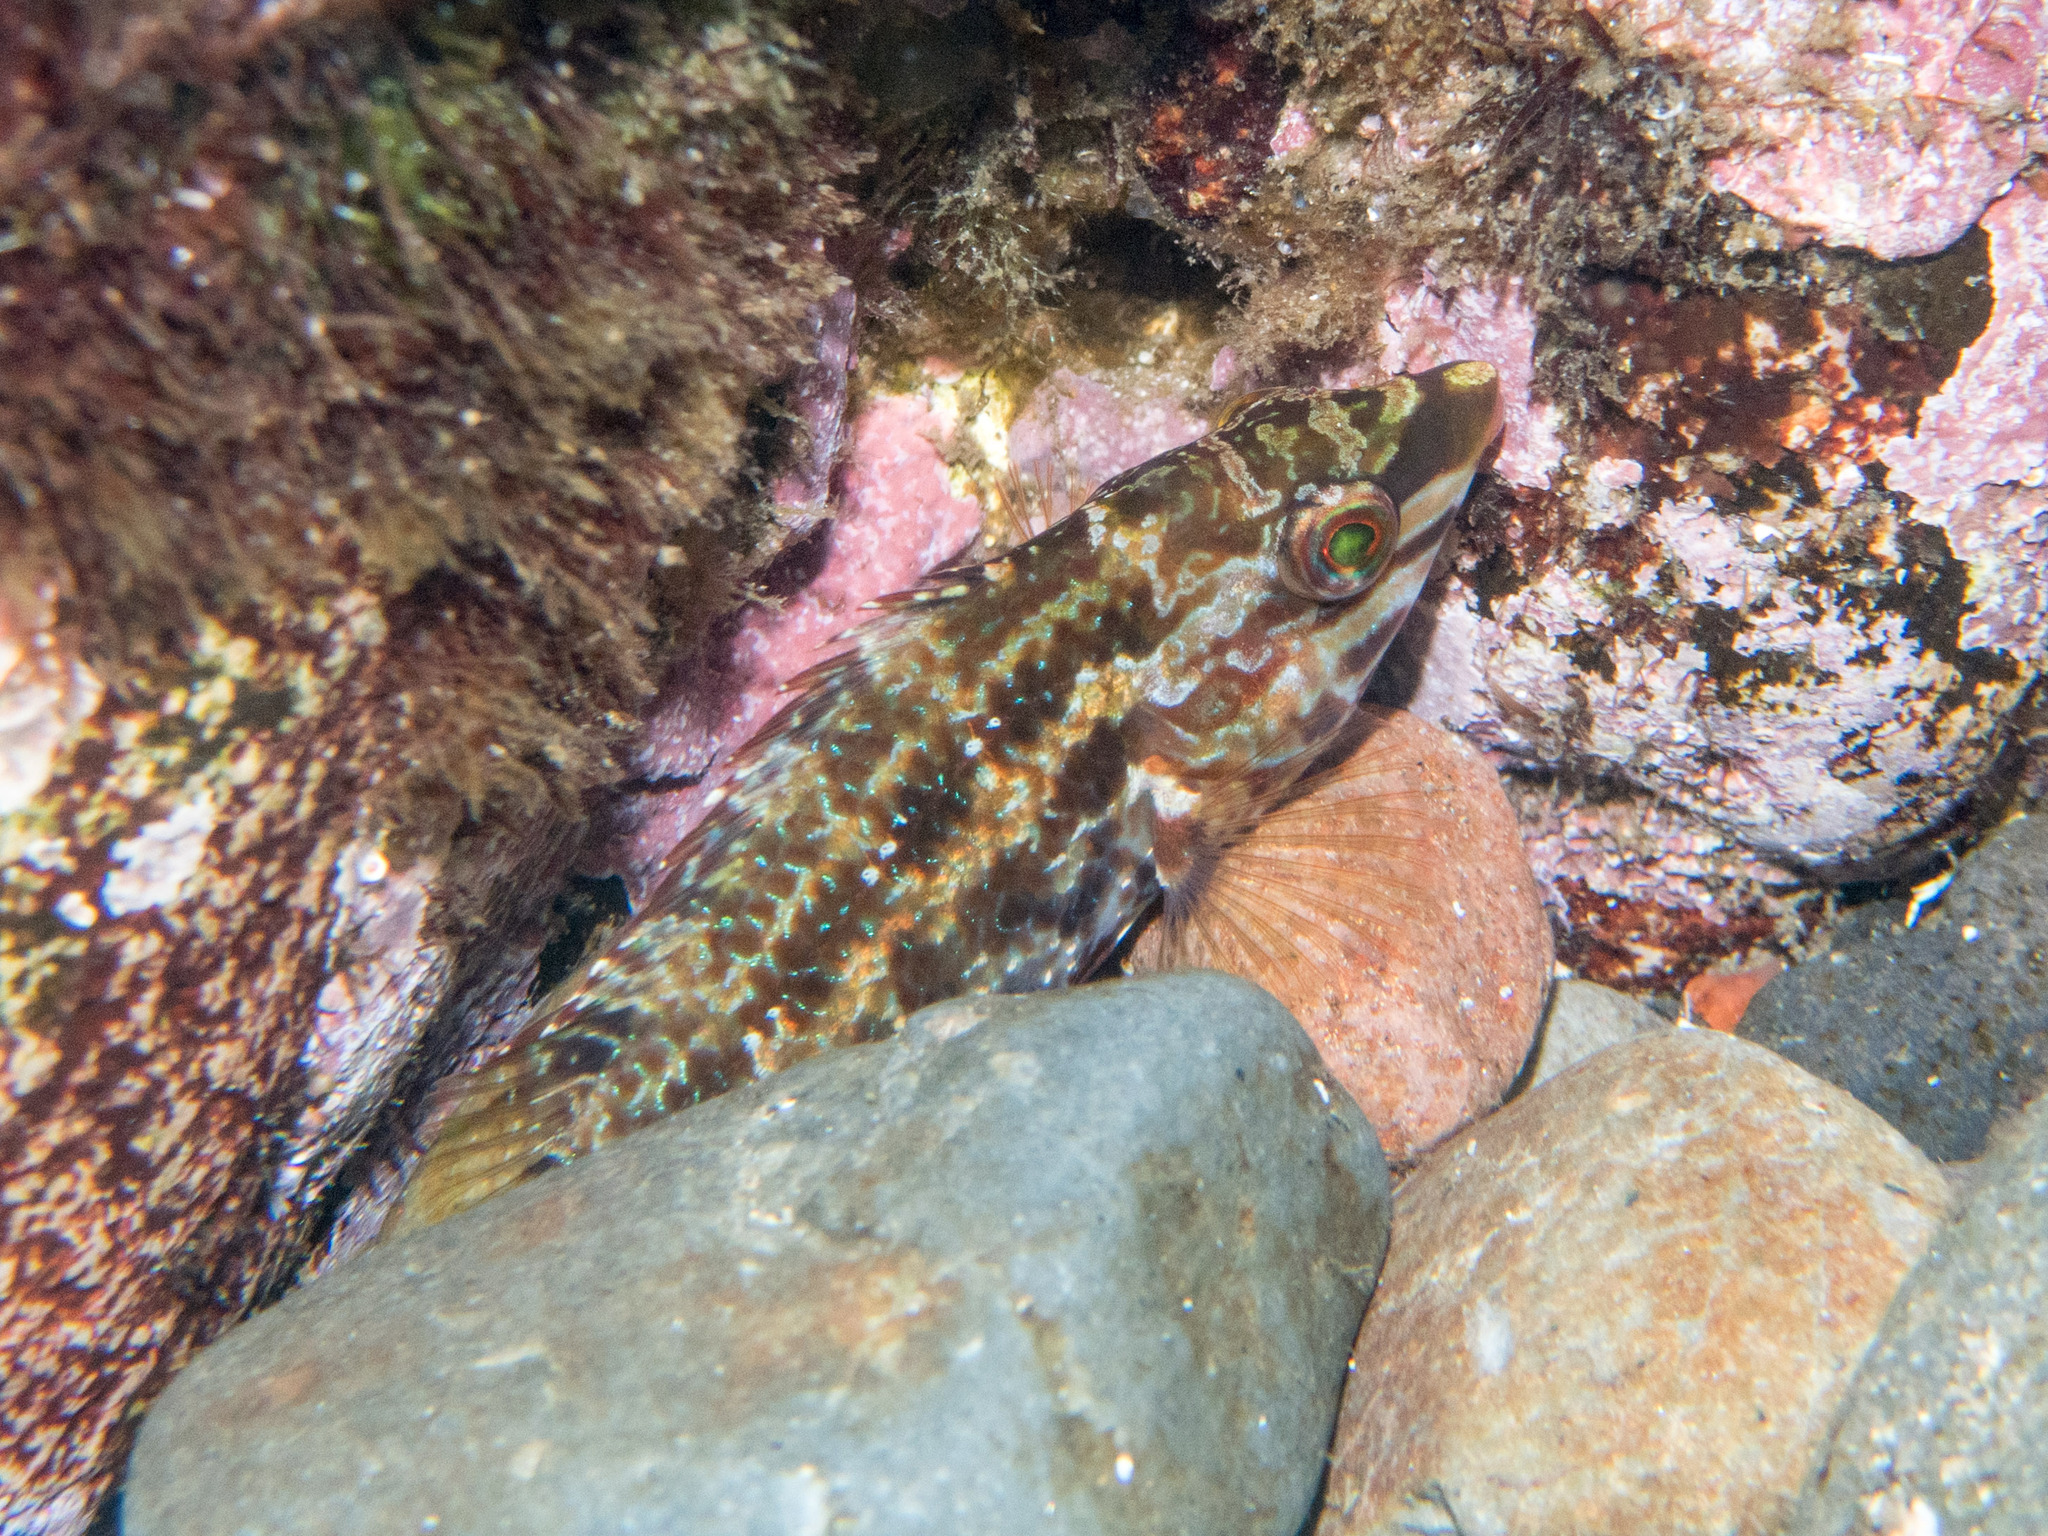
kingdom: Animalia
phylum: Chordata
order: Perciformes
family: Labridae
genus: Symphodus
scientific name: Symphodus roissali
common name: Five-spotted wrasse
